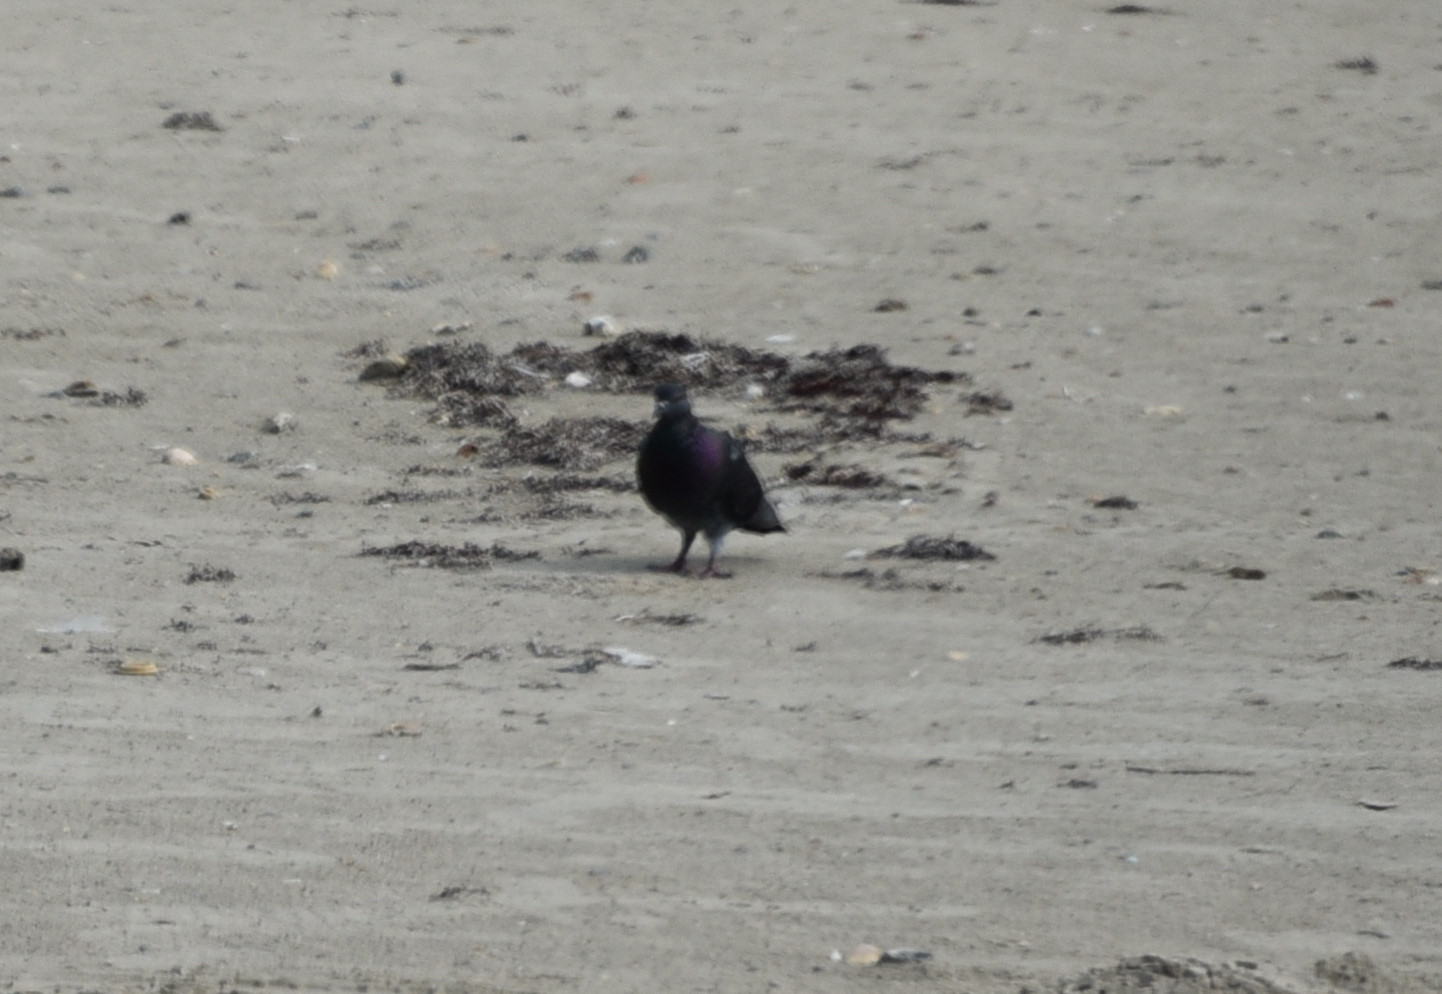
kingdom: Animalia
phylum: Chordata
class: Aves
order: Columbiformes
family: Columbidae
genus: Columba
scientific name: Columba livia
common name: Rock pigeon
